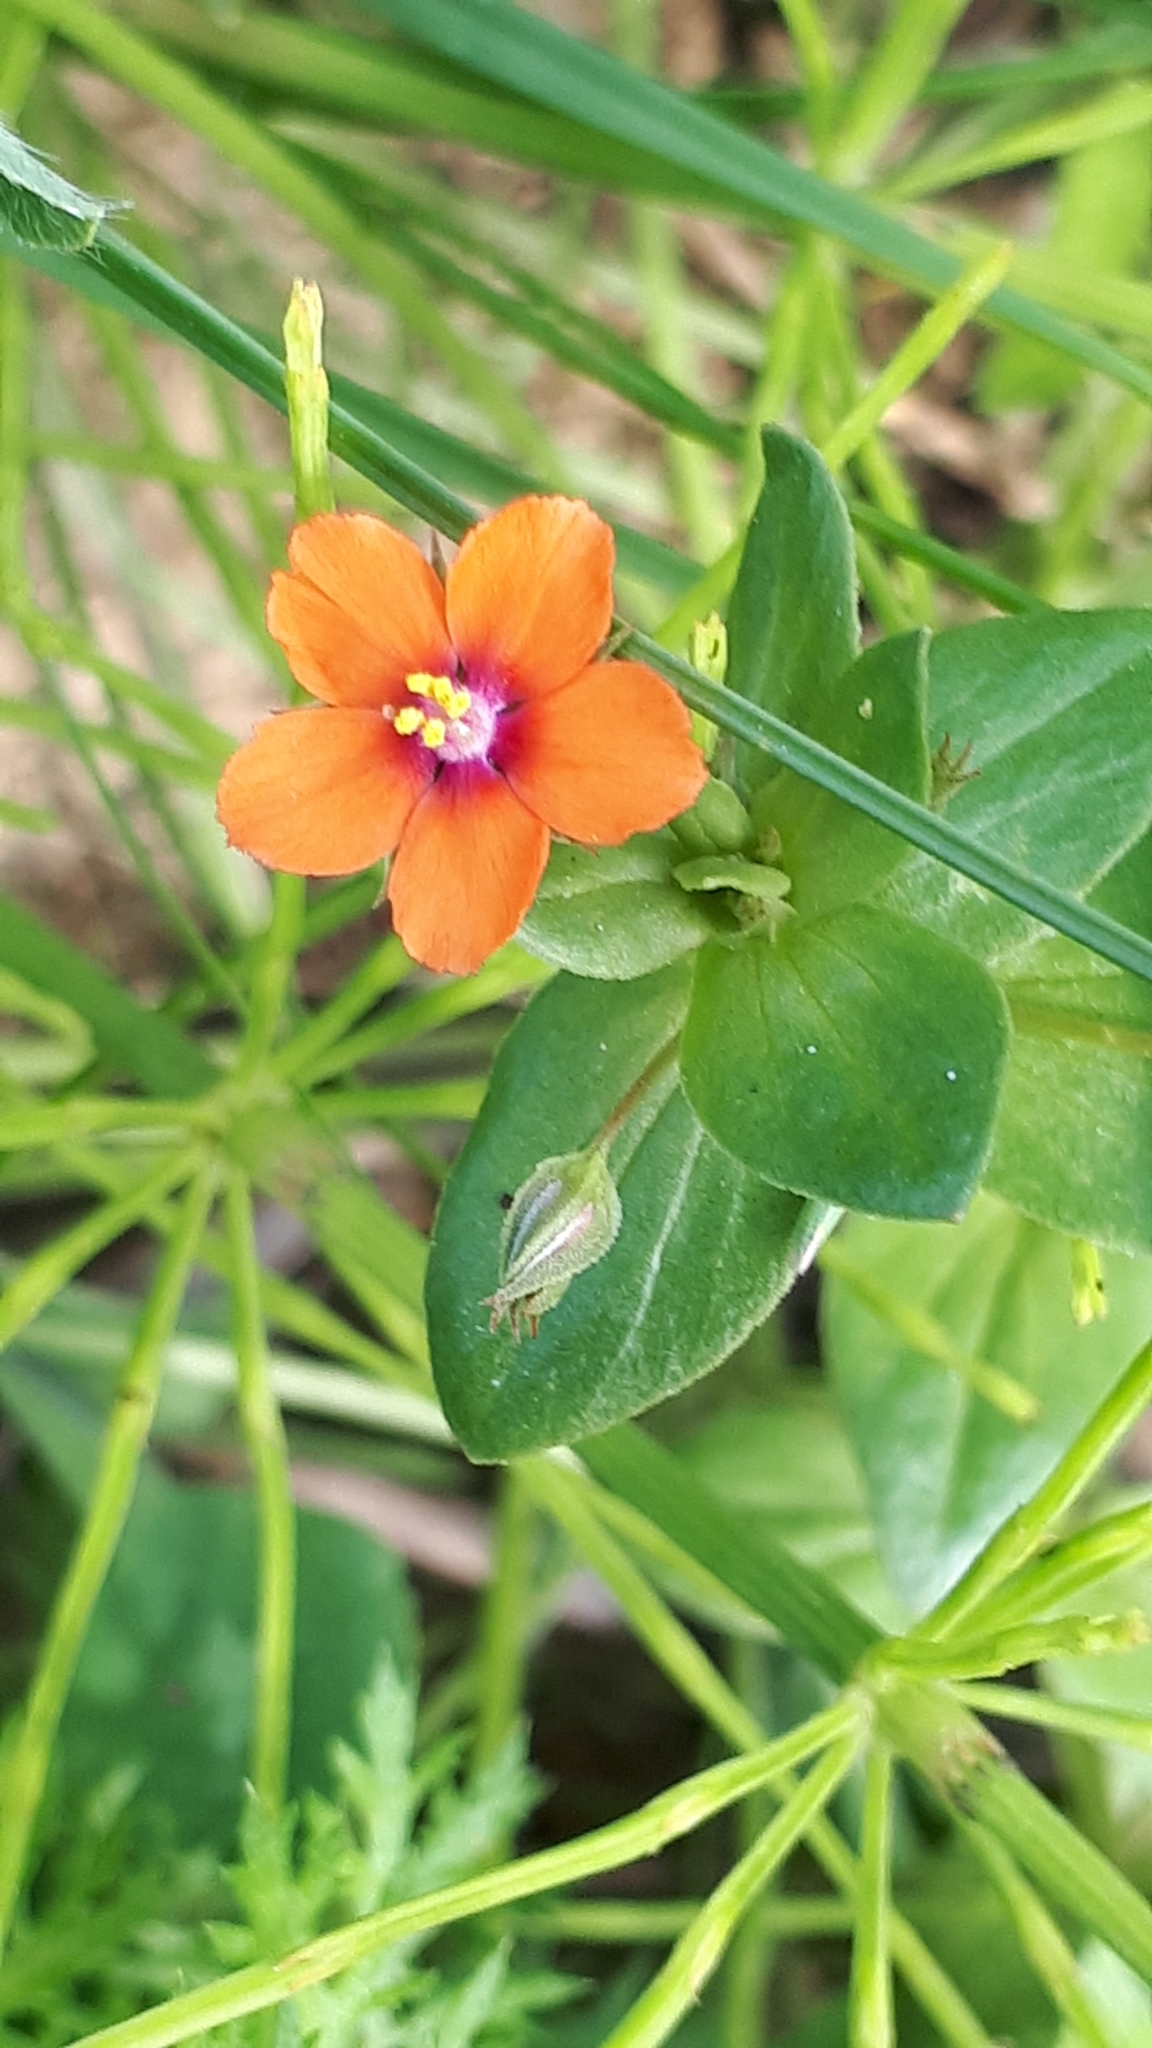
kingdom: Plantae
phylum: Tracheophyta
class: Magnoliopsida
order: Ericales
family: Primulaceae
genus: Lysimachia
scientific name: Lysimachia arvensis
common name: Scarlet pimpernel
